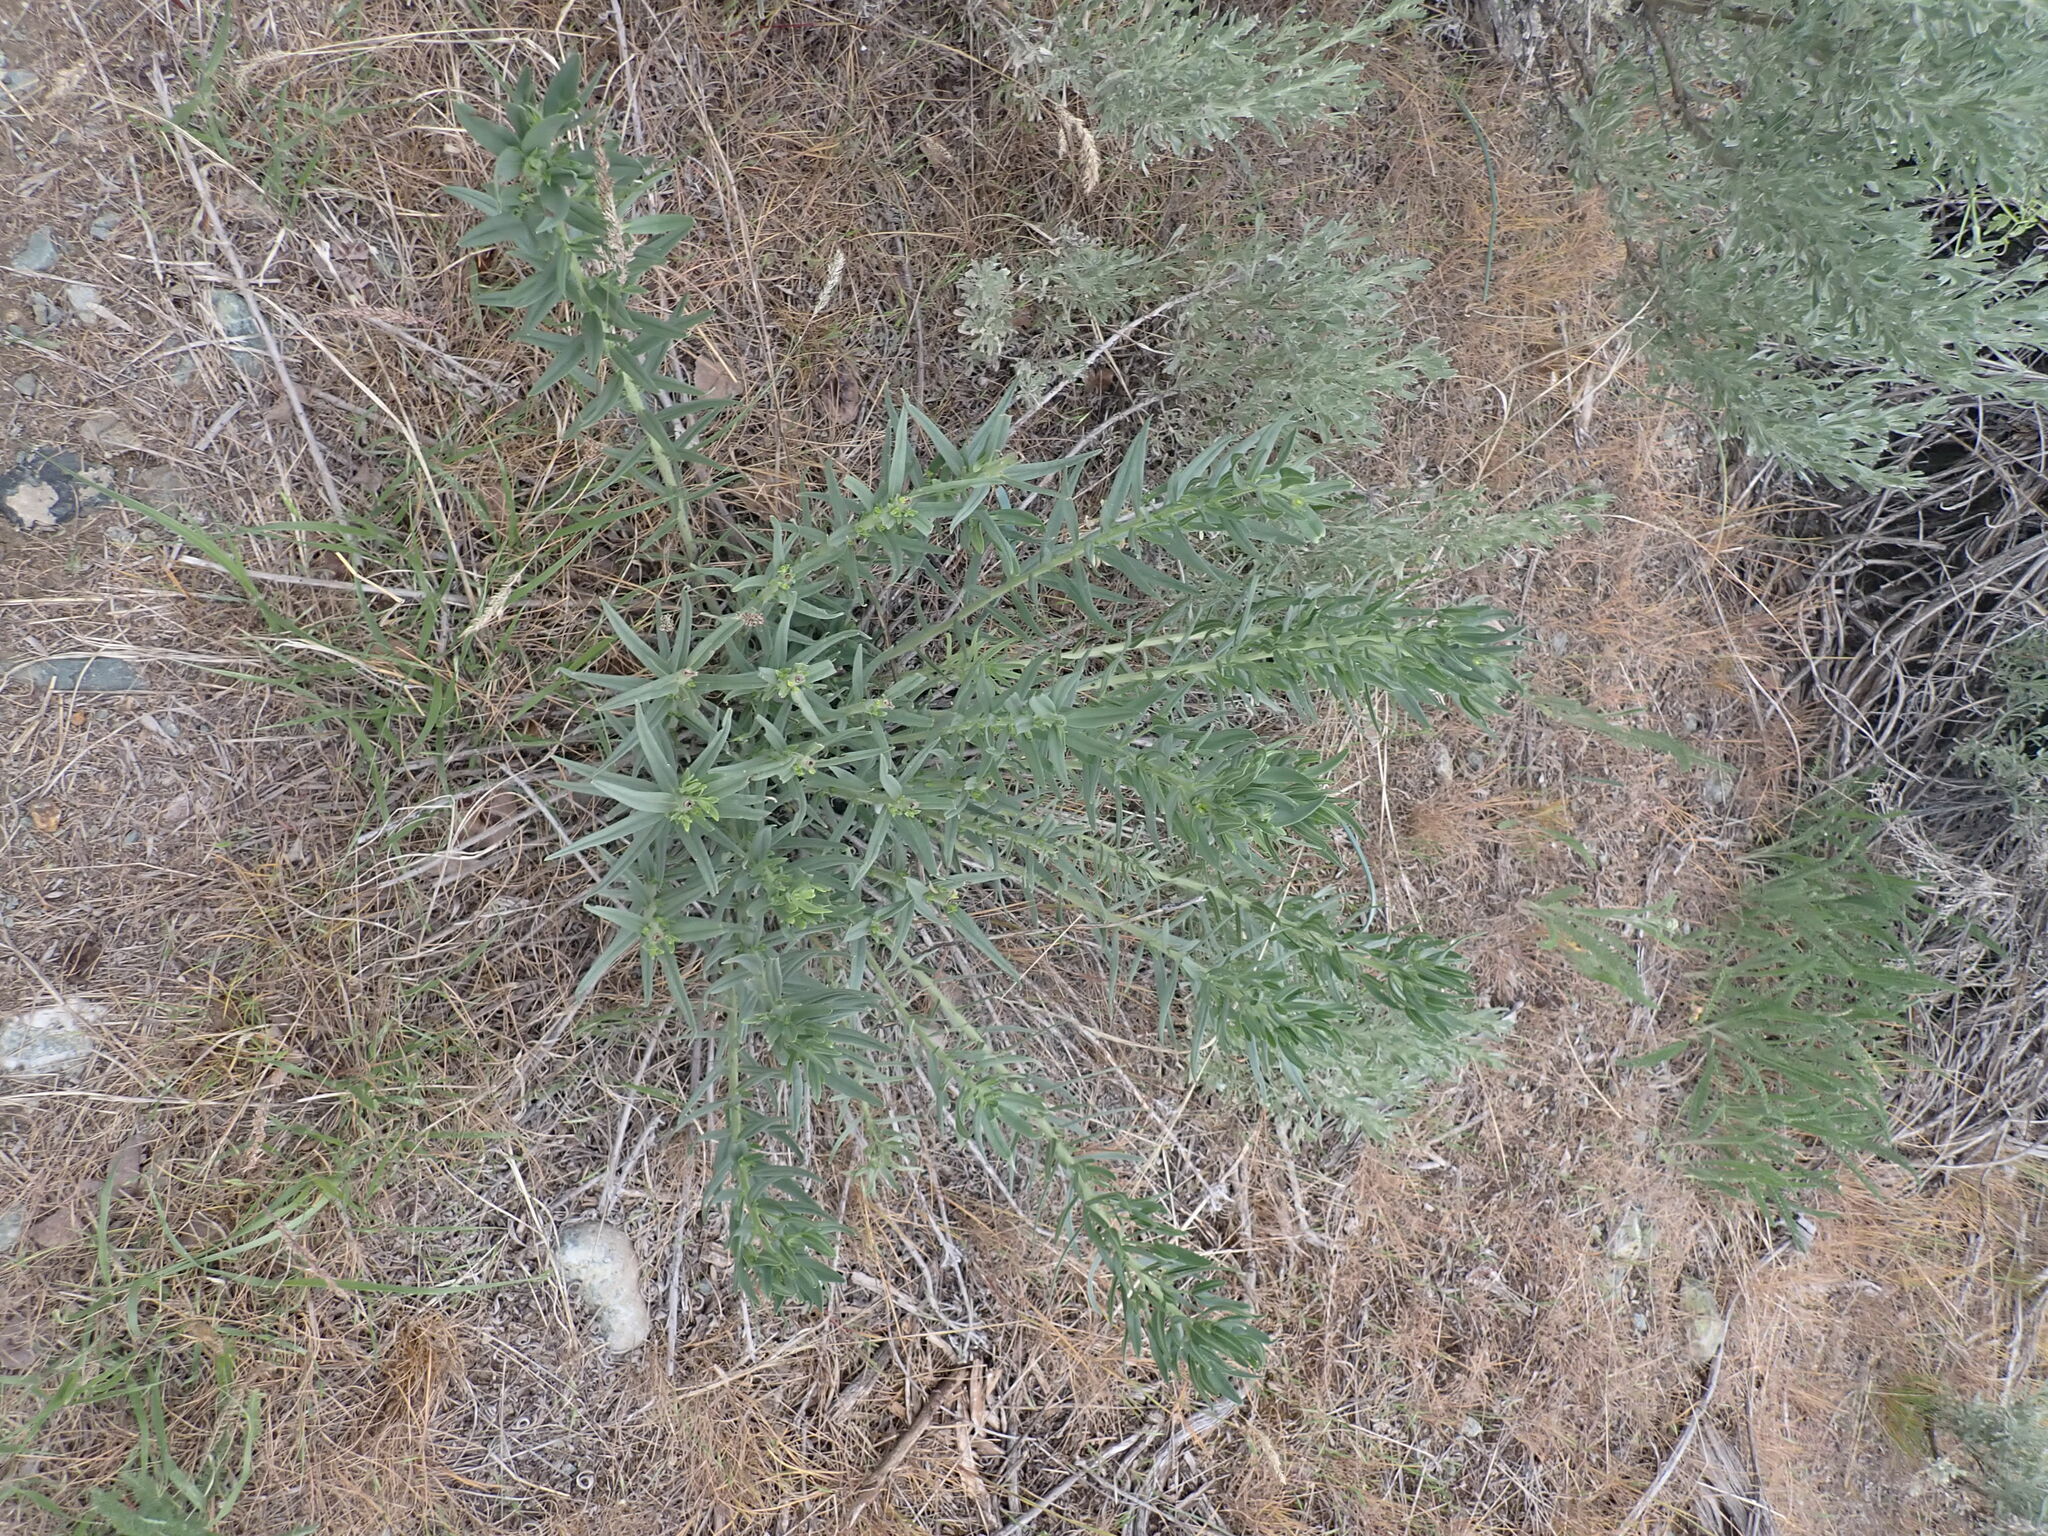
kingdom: Plantae
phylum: Tracheophyta
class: Magnoliopsida
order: Boraginales
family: Boraginaceae
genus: Lithospermum
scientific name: Lithospermum ruderale
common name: Western gromwell
